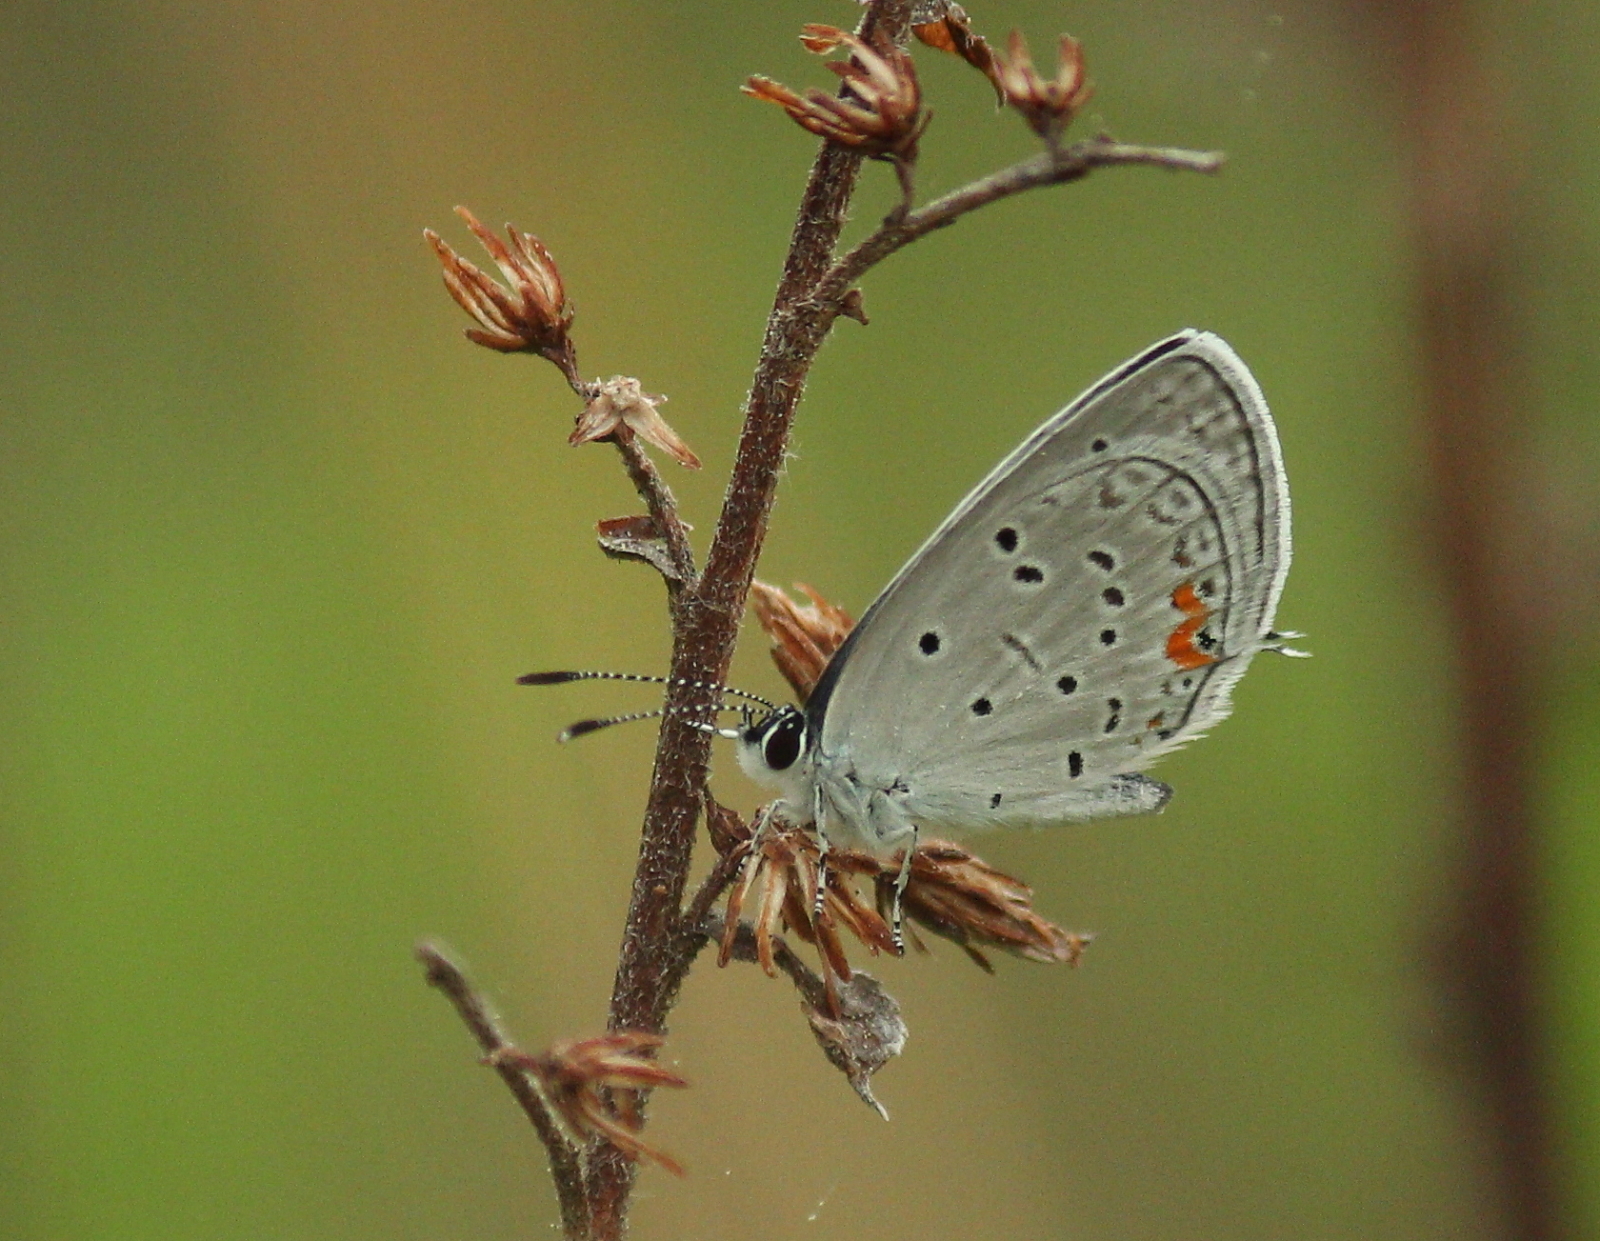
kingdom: Animalia
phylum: Arthropoda
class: Insecta
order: Lepidoptera
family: Lycaenidae
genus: Elkalyce
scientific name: Elkalyce comyntas
